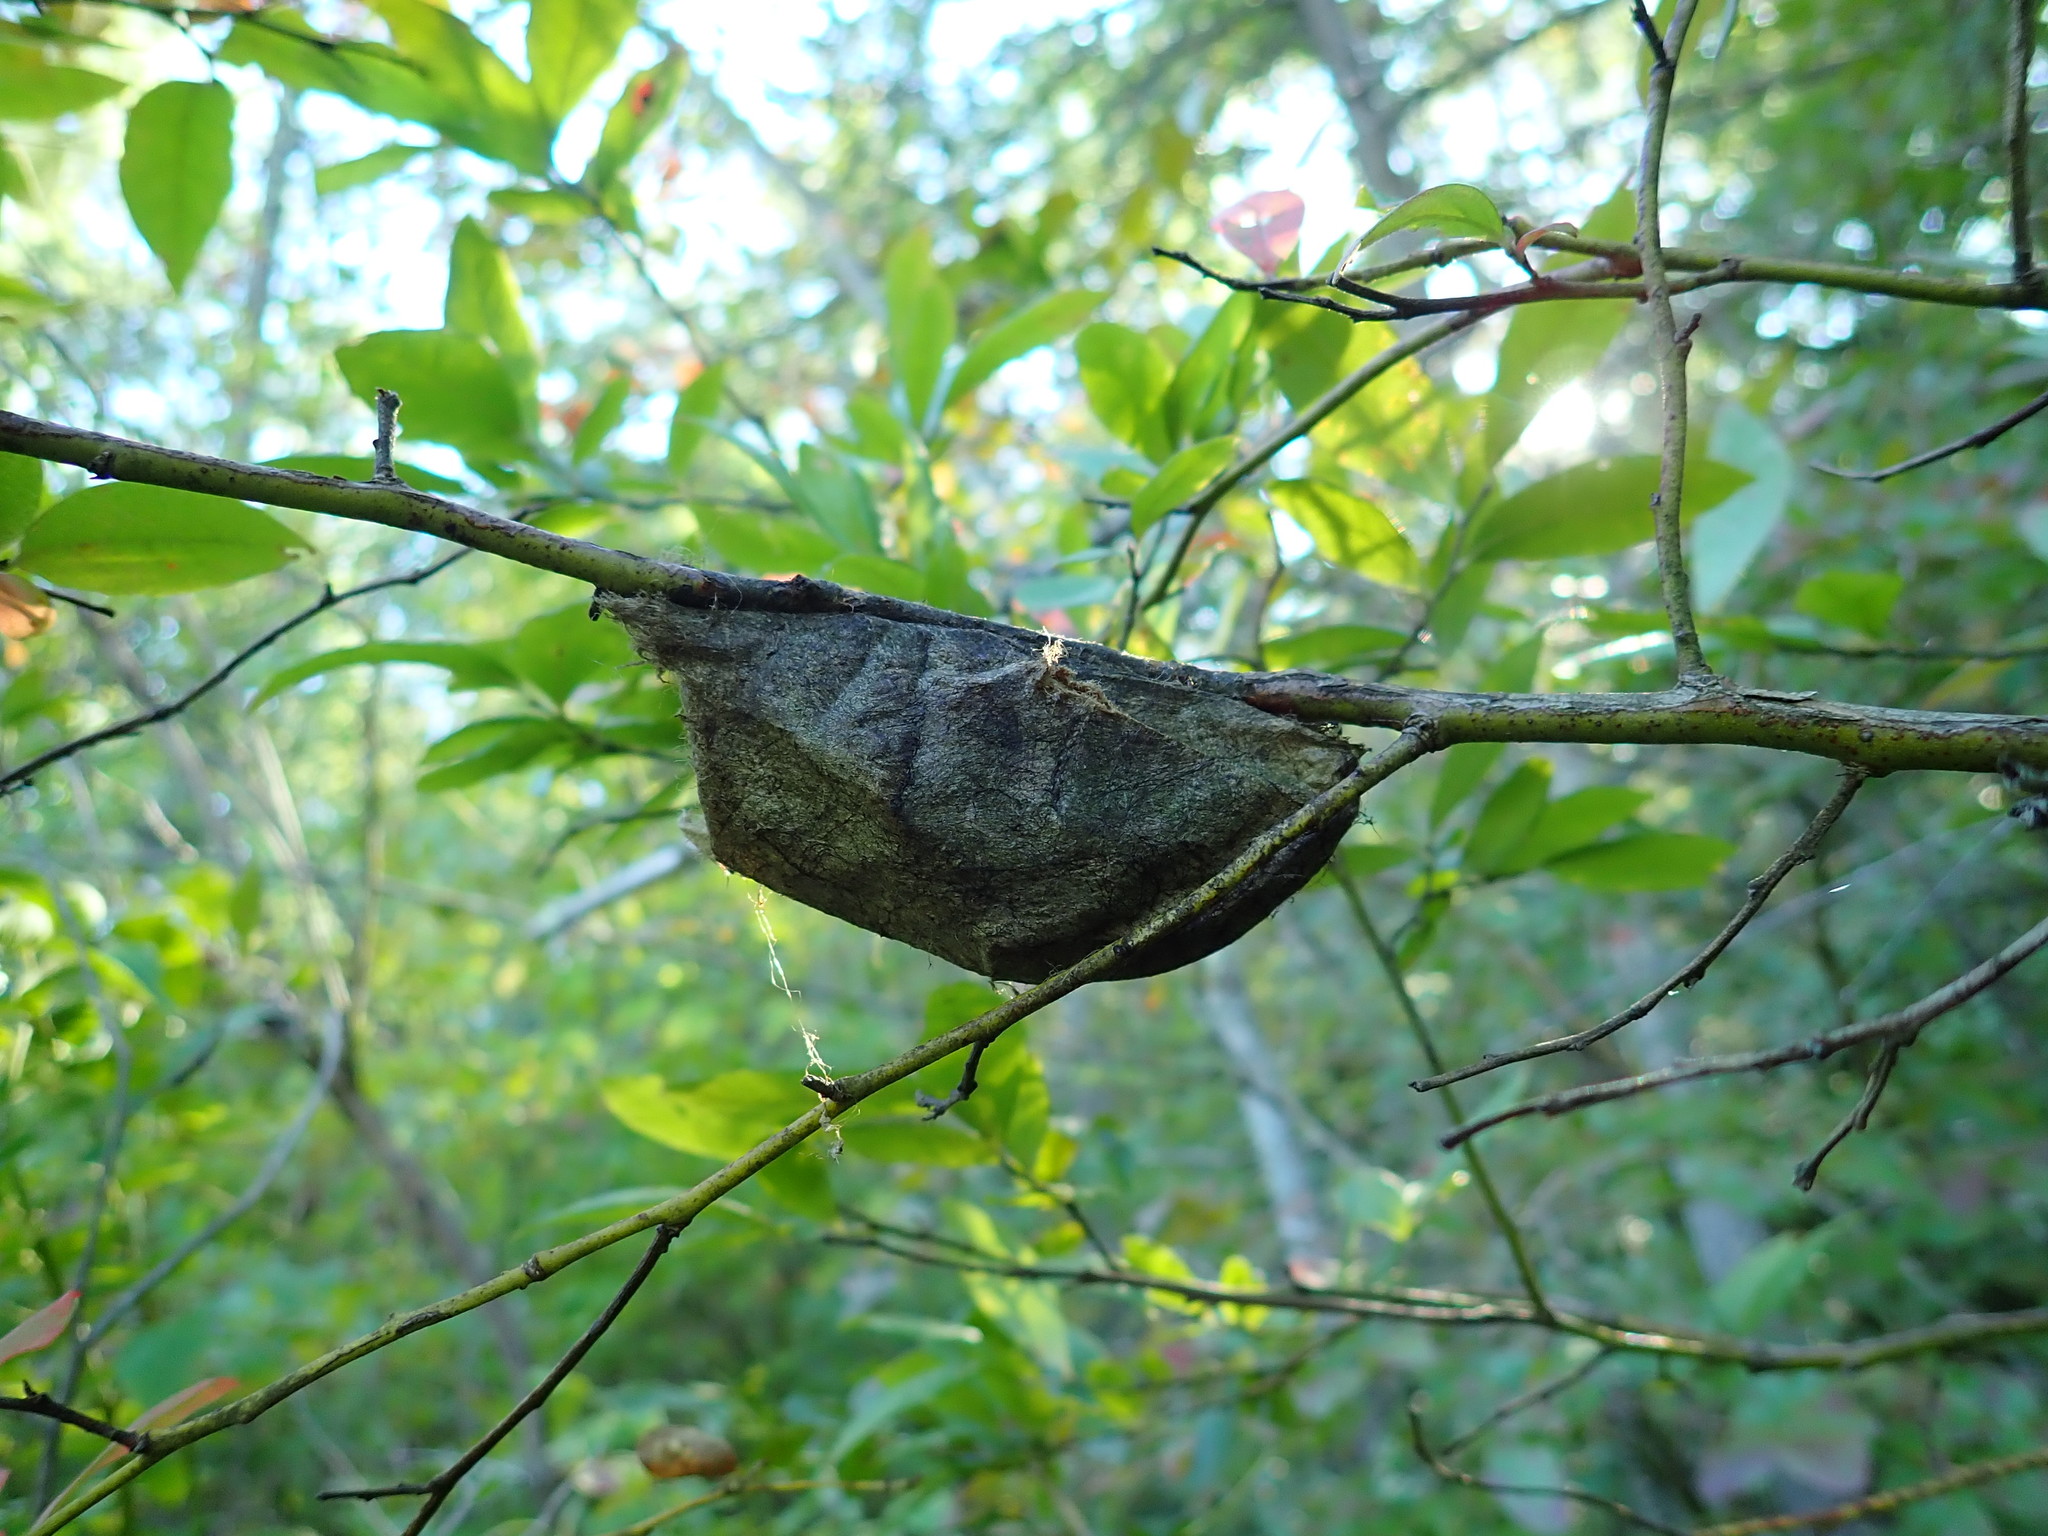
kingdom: Animalia
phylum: Arthropoda
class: Insecta
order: Lepidoptera
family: Saturniidae
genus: Hyalophora
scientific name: Hyalophora cecropia
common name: Cecropia silkmoth
